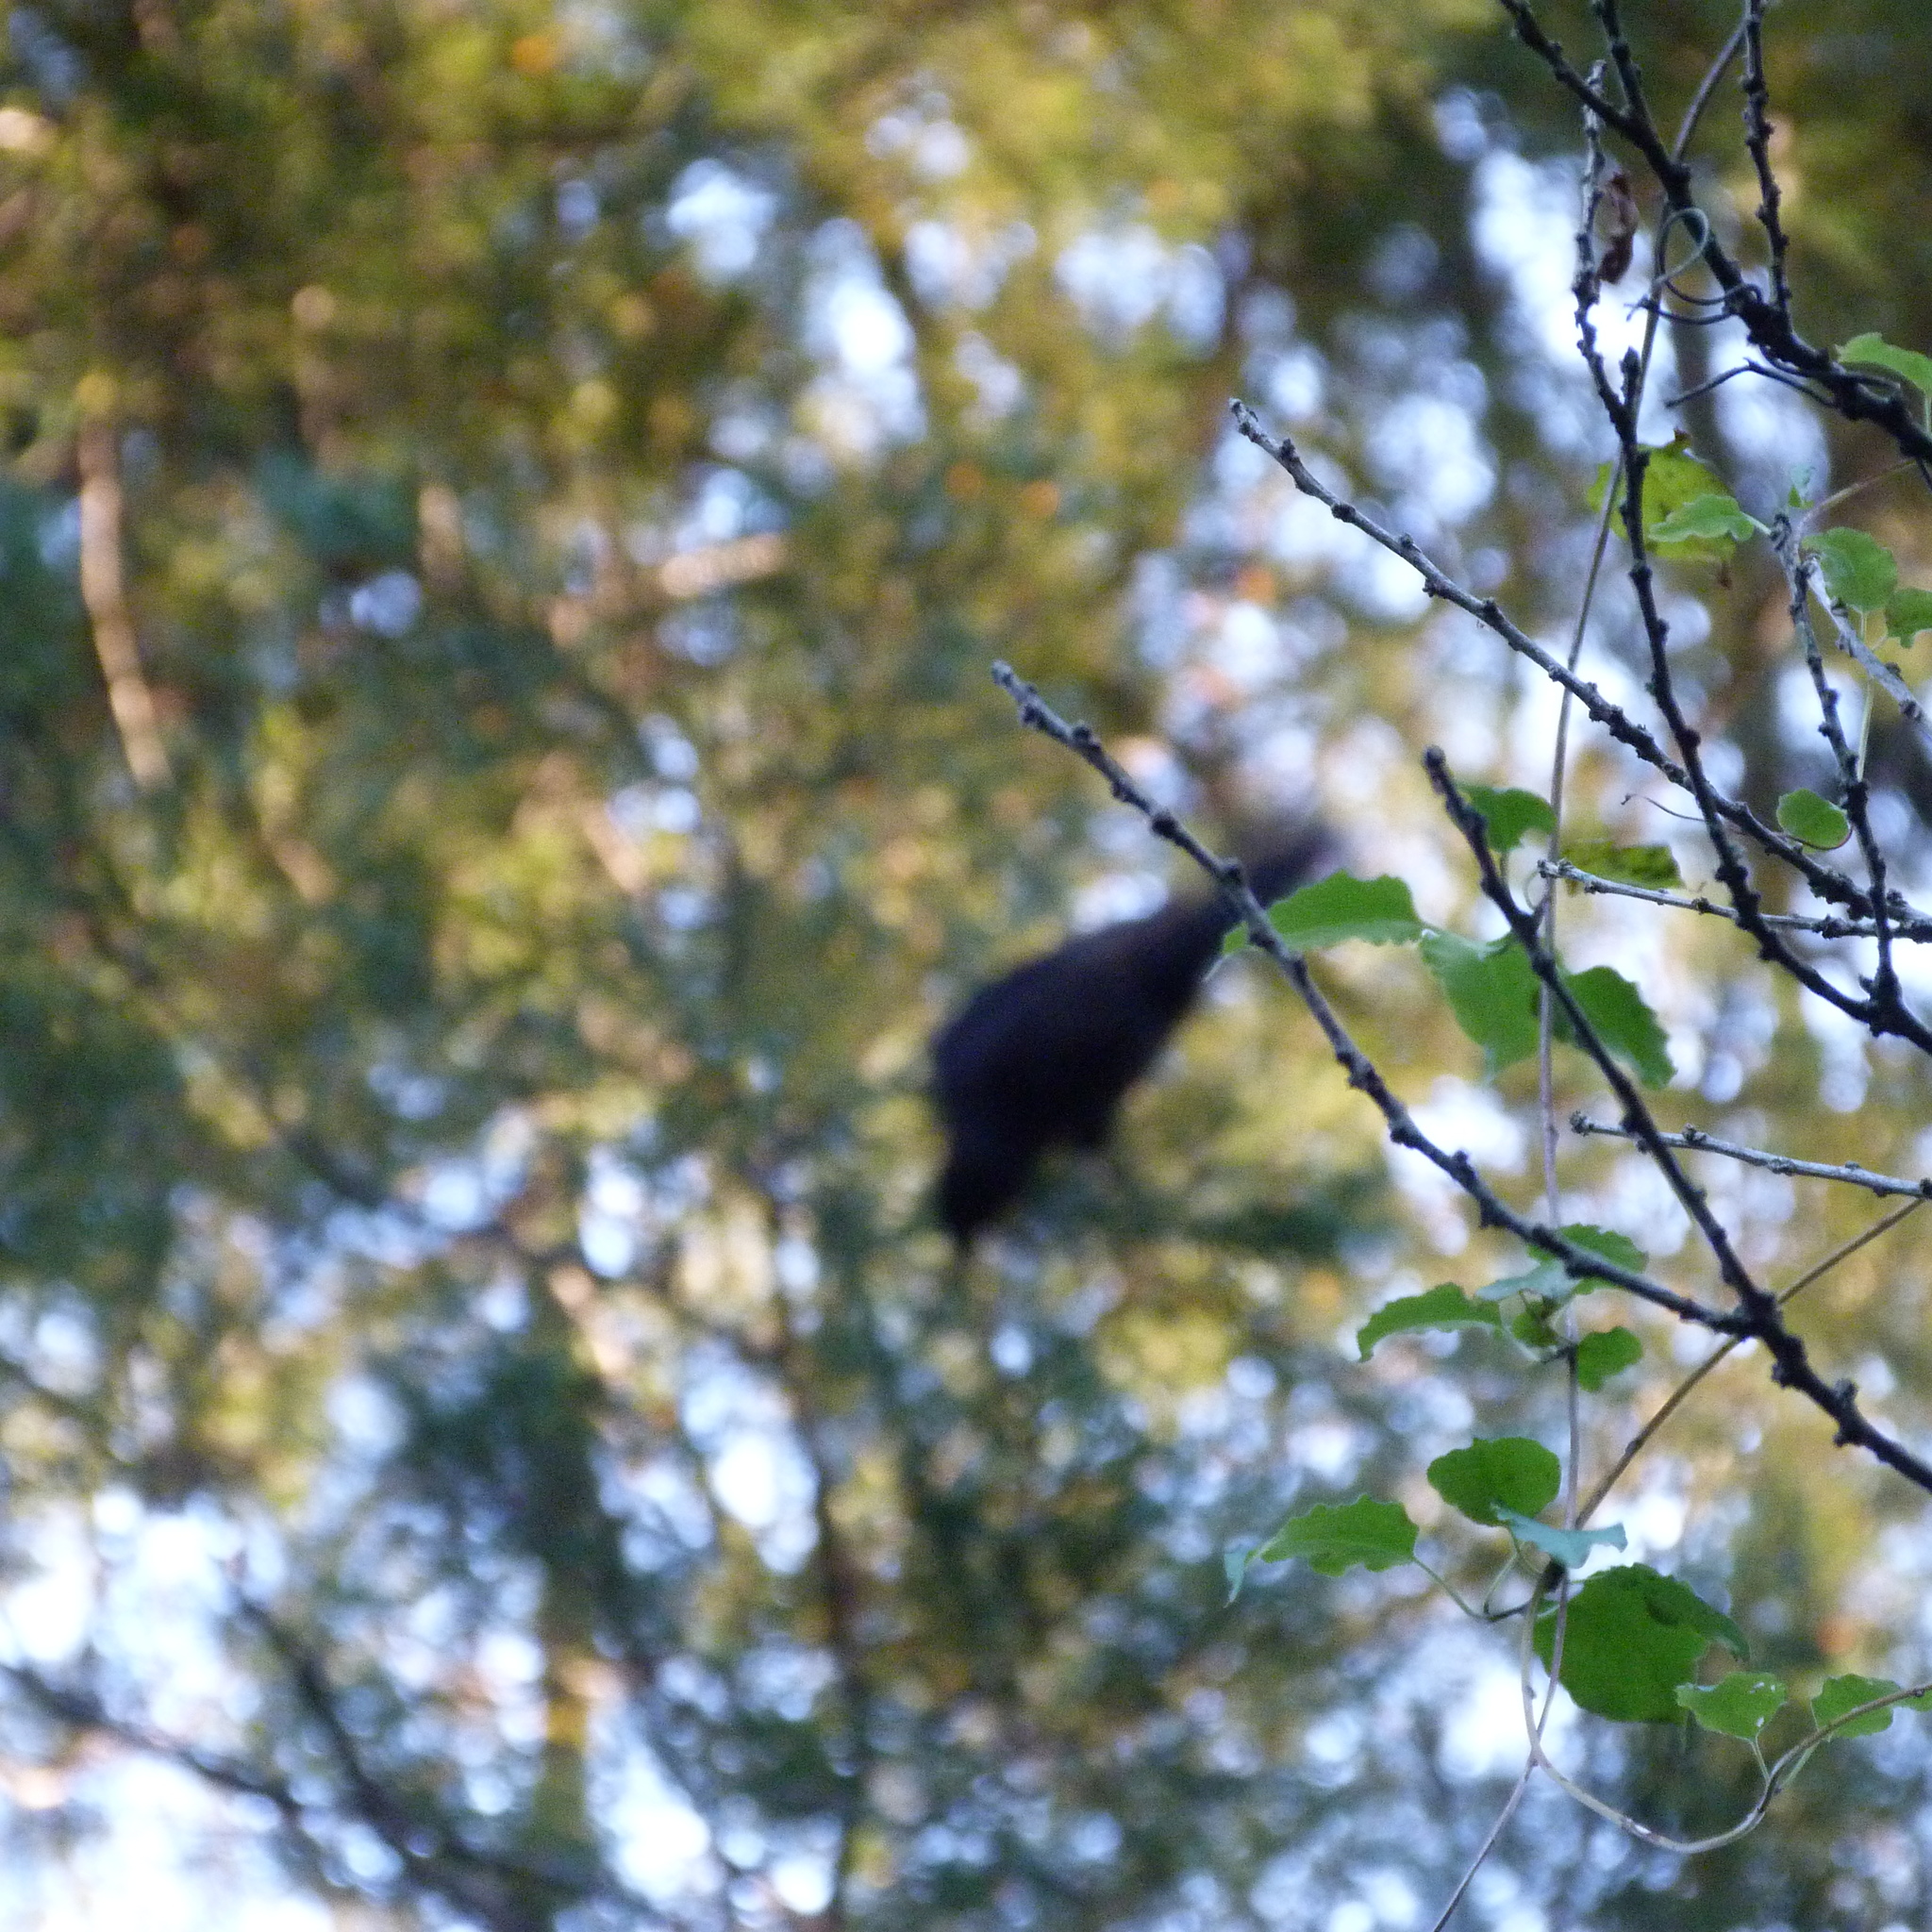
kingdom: Animalia
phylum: Chordata
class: Aves
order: Passeriformes
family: Turdidae
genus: Turdus
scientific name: Turdus merula
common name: Common blackbird
